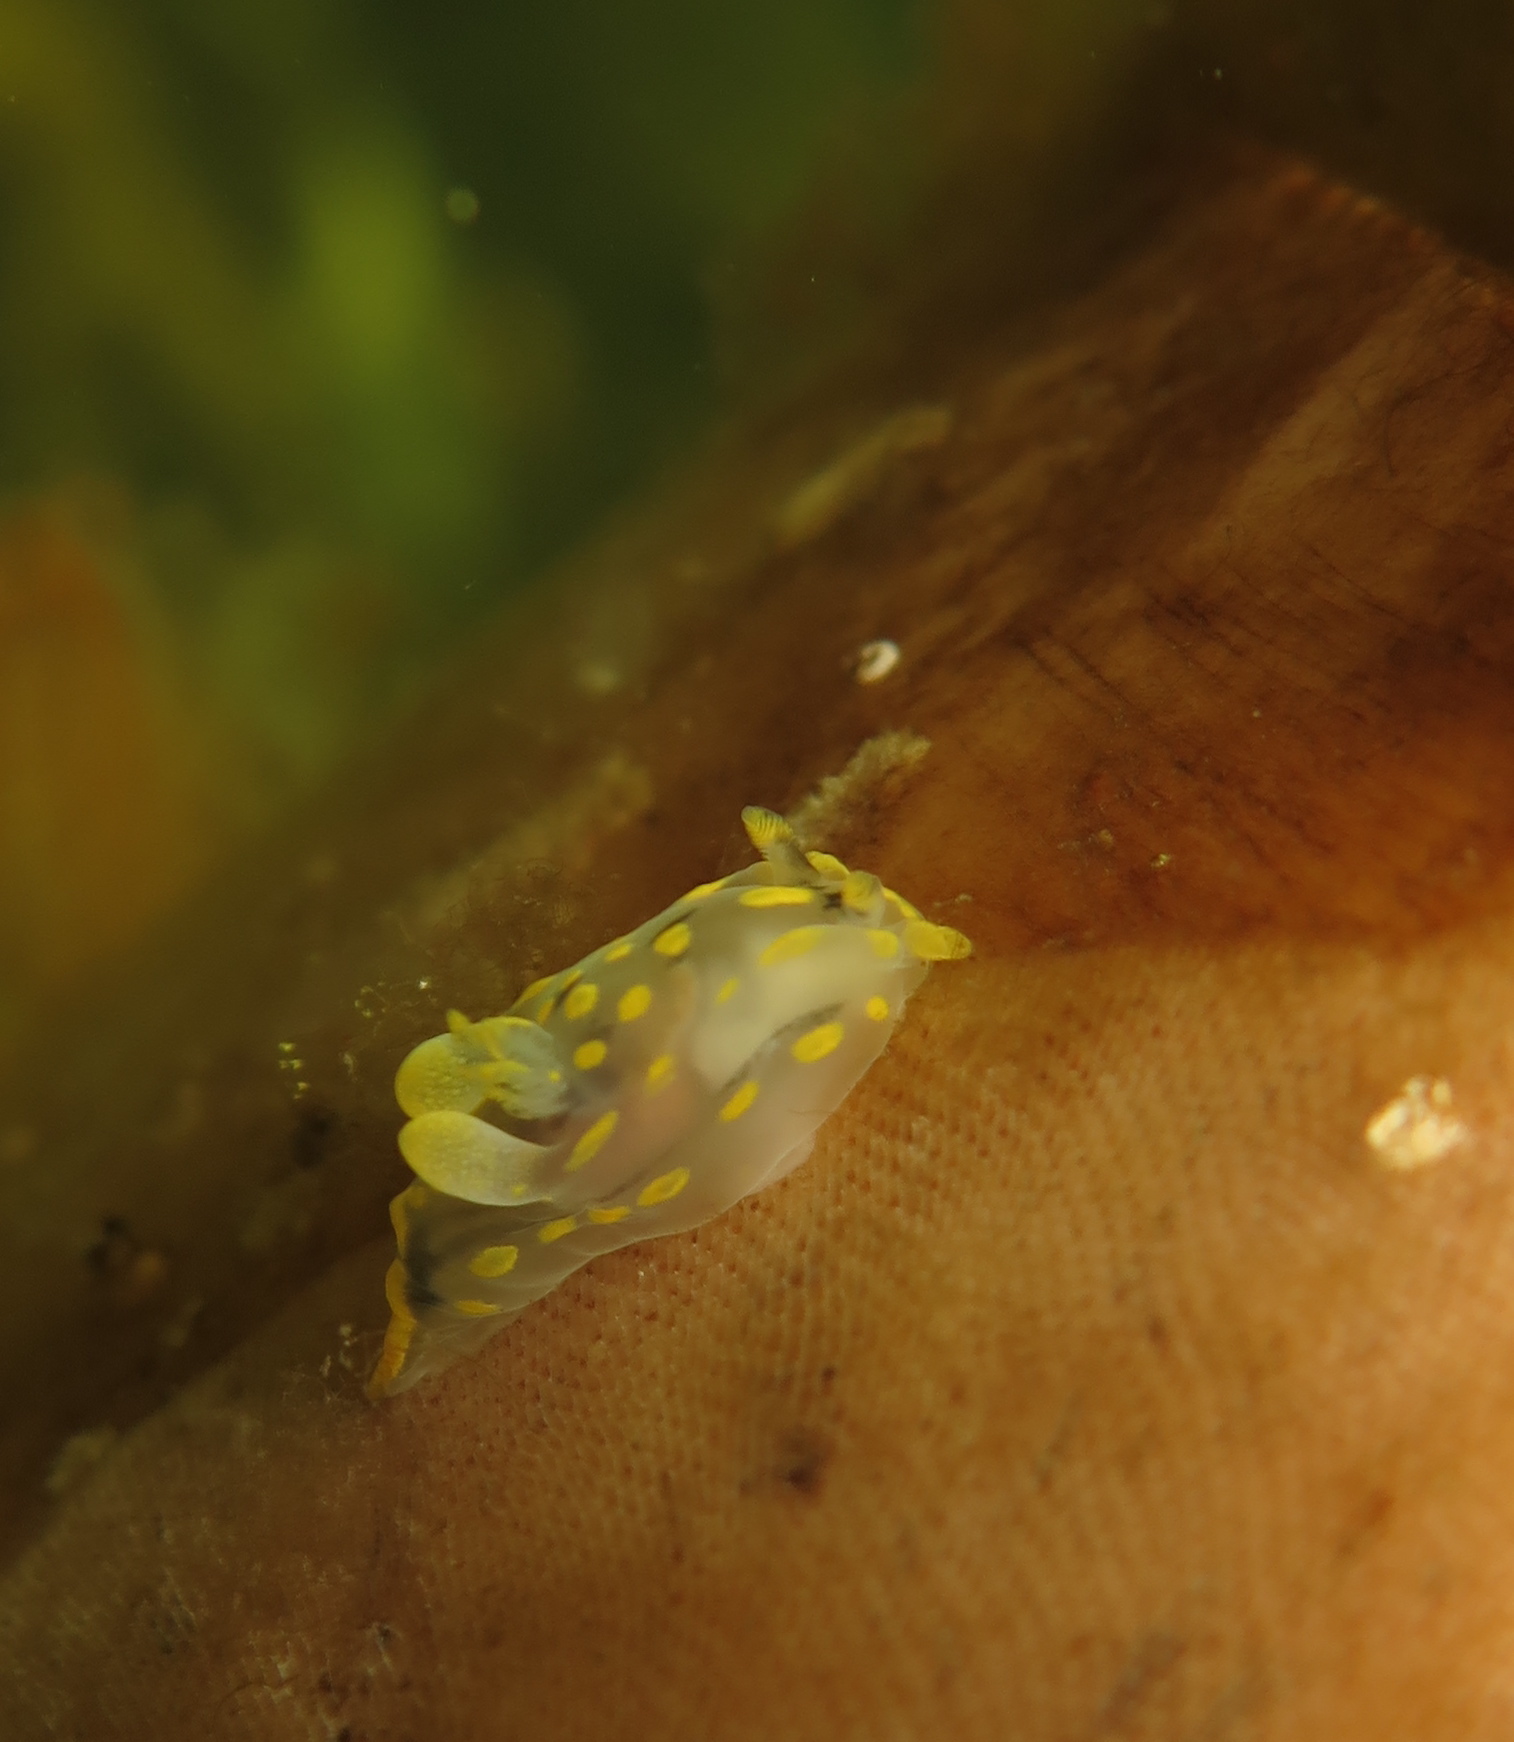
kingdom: Animalia
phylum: Mollusca
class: Gastropoda
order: Nudibranchia
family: Polyceridae
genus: Polycera
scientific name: Polycera quadrilineata
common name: Four-striped polycera
